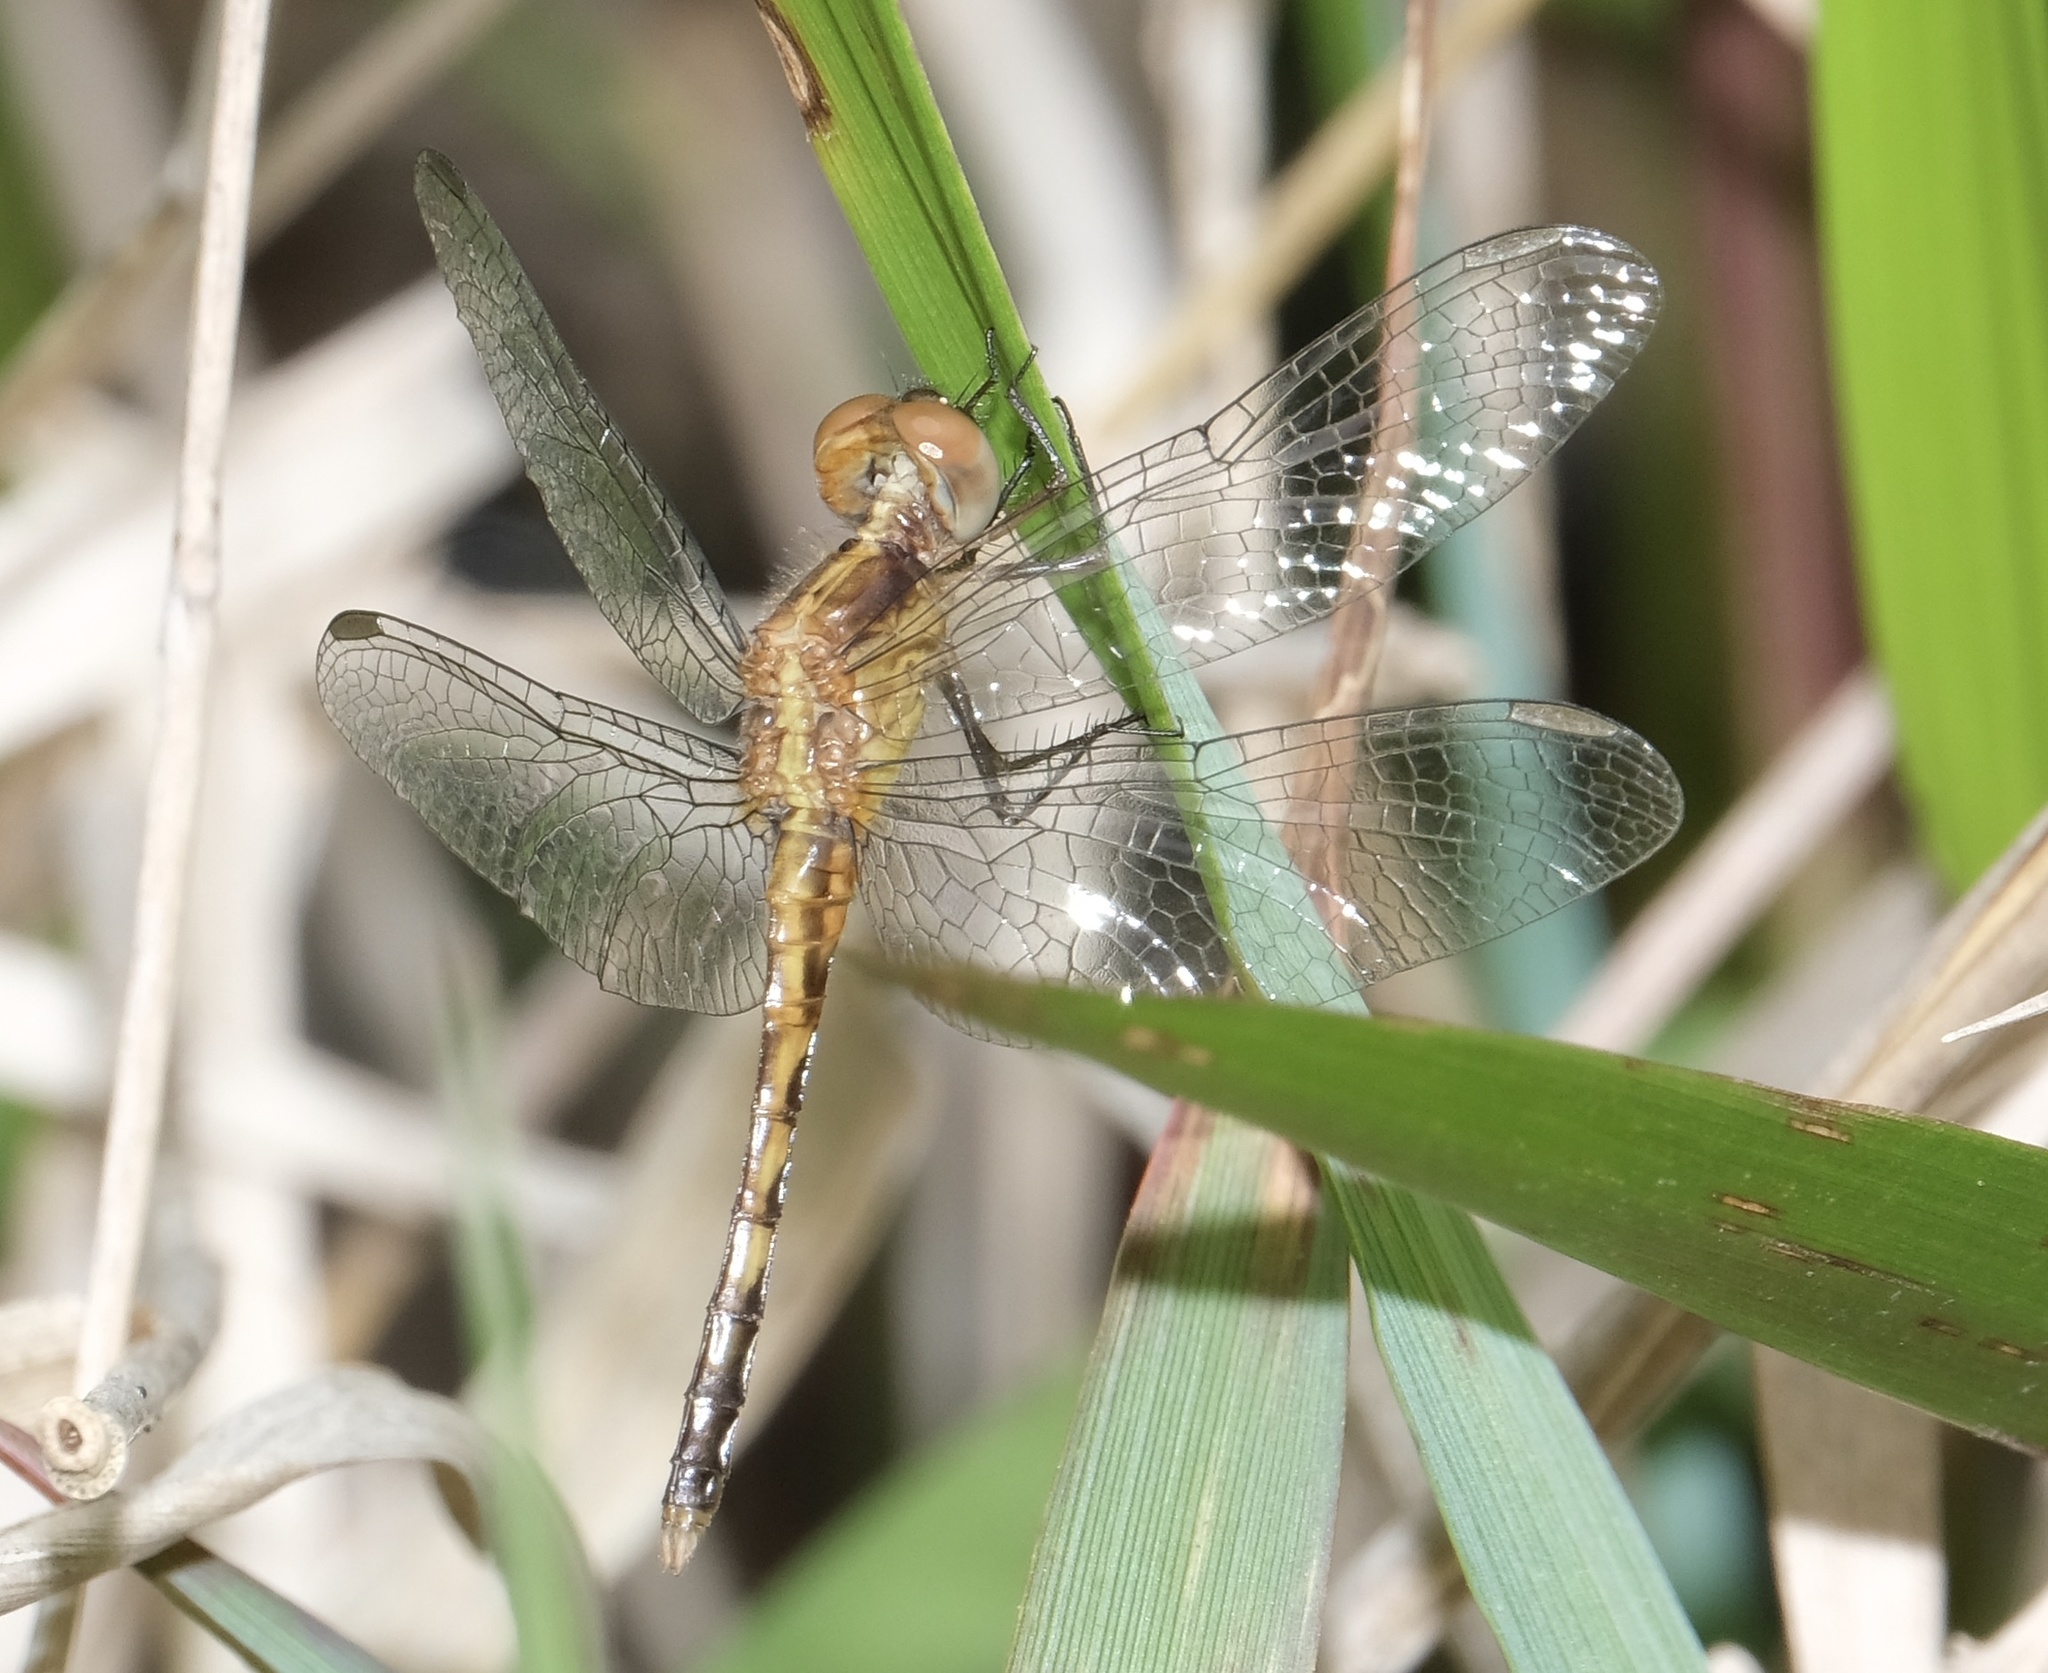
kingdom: Animalia
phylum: Arthropoda
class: Insecta
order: Odonata
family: Libellulidae
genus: Erythrodiplax
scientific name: Erythrodiplax minuscula
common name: Little blue dragonlet
